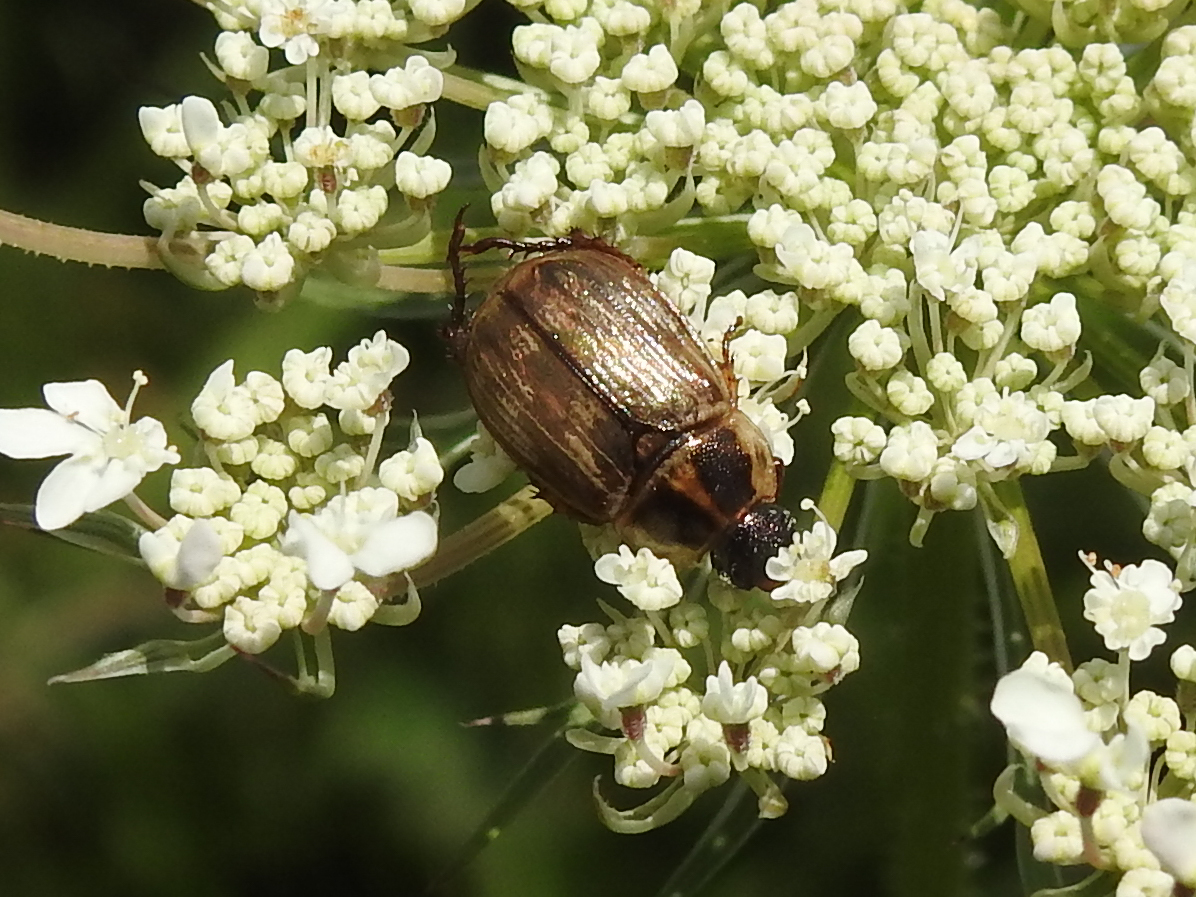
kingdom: Animalia
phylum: Arthropoda
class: Insecta
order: Coleoptera
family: Scarabaeidae
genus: Exomala
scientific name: Exomala orientalis
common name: Oriental beetle
